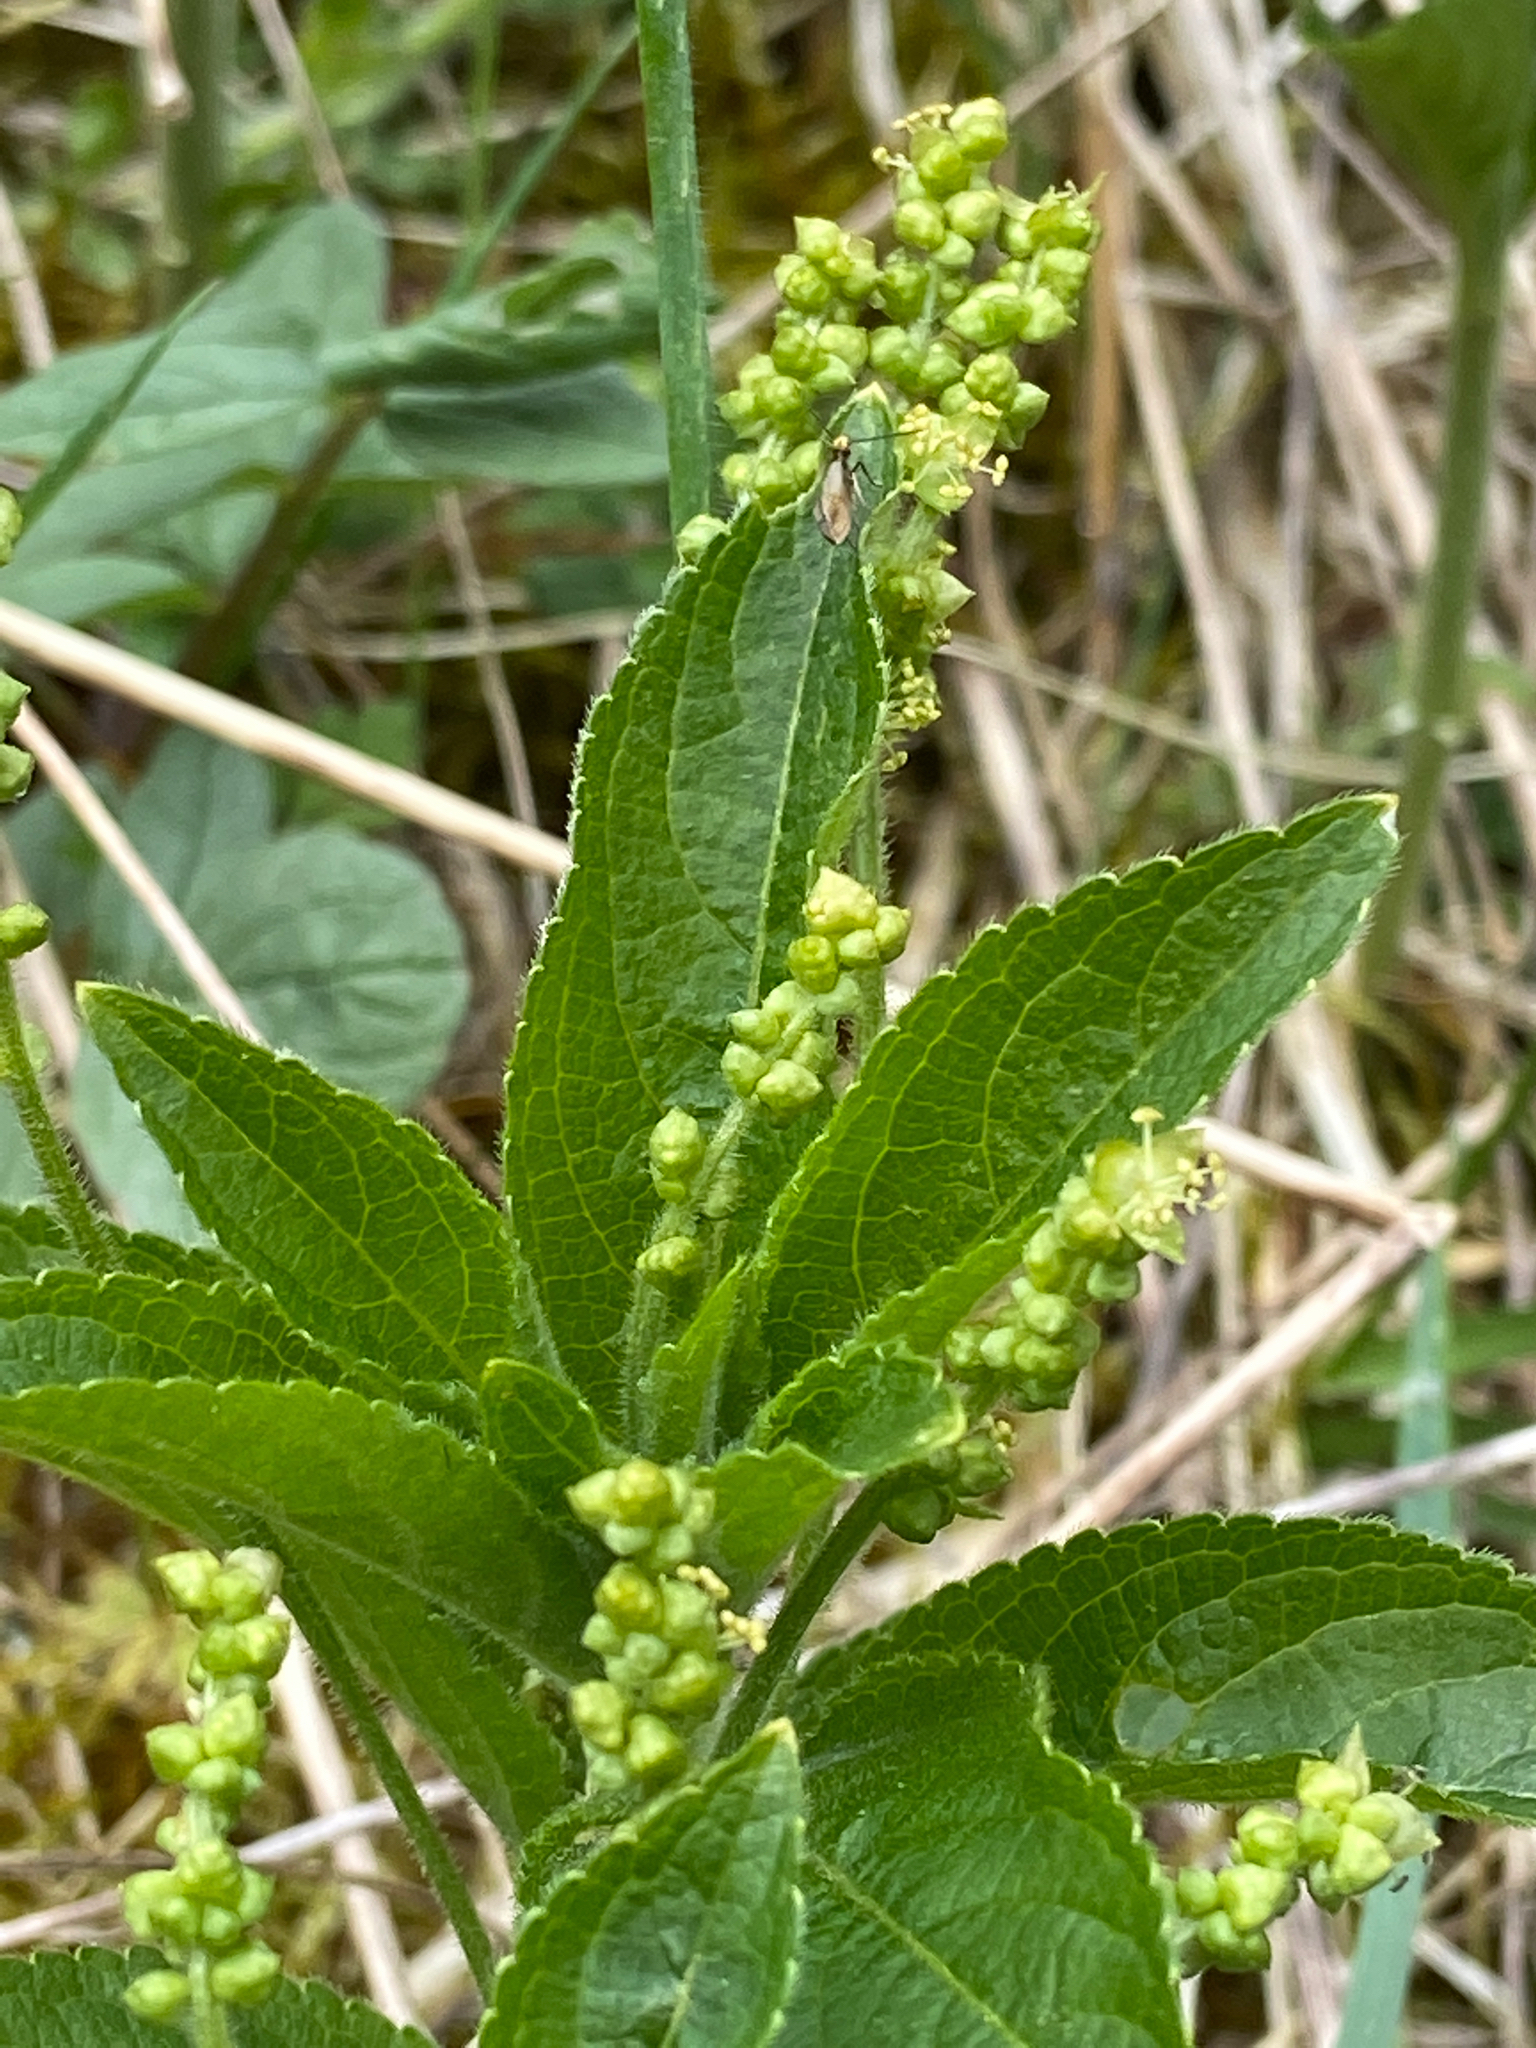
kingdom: Plantae
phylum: Tracheophyta
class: Magnoliopsida
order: Malpighiales
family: Euphorbiaceae
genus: Mercurialis
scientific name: Mercurialis perennis
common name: Dog mercury
